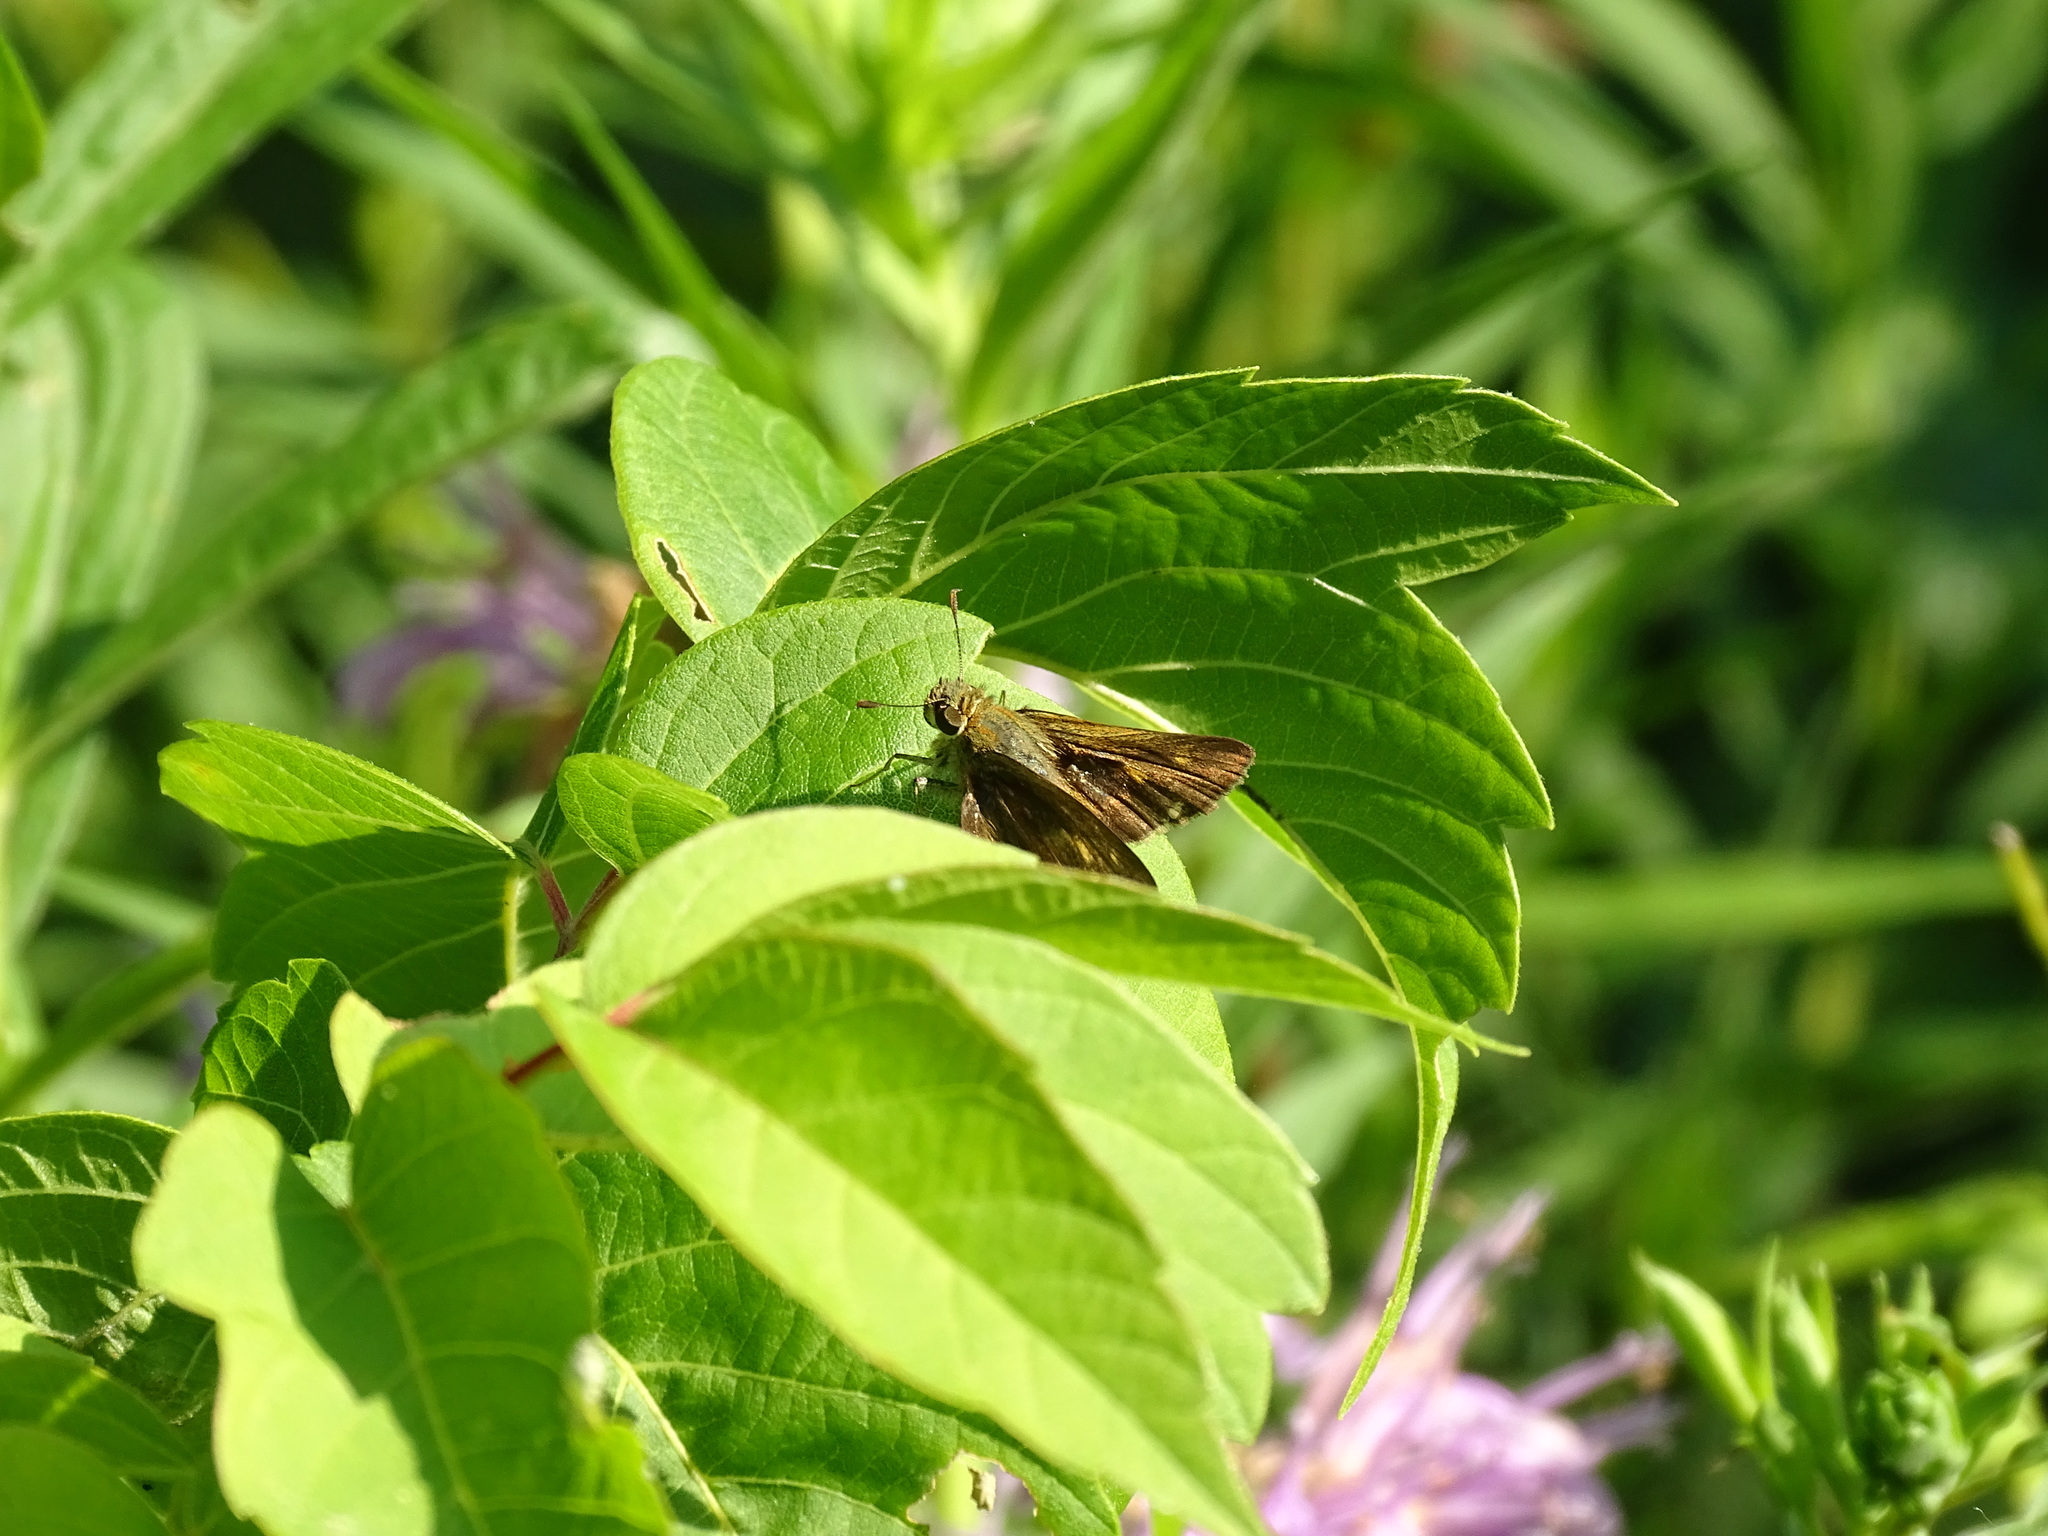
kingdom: Animalia
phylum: Arthropoda
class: Insecta
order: Lepidoptera
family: Hesperiidae
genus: Euphyes
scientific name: Euphyes vestris
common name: Dun skipper
